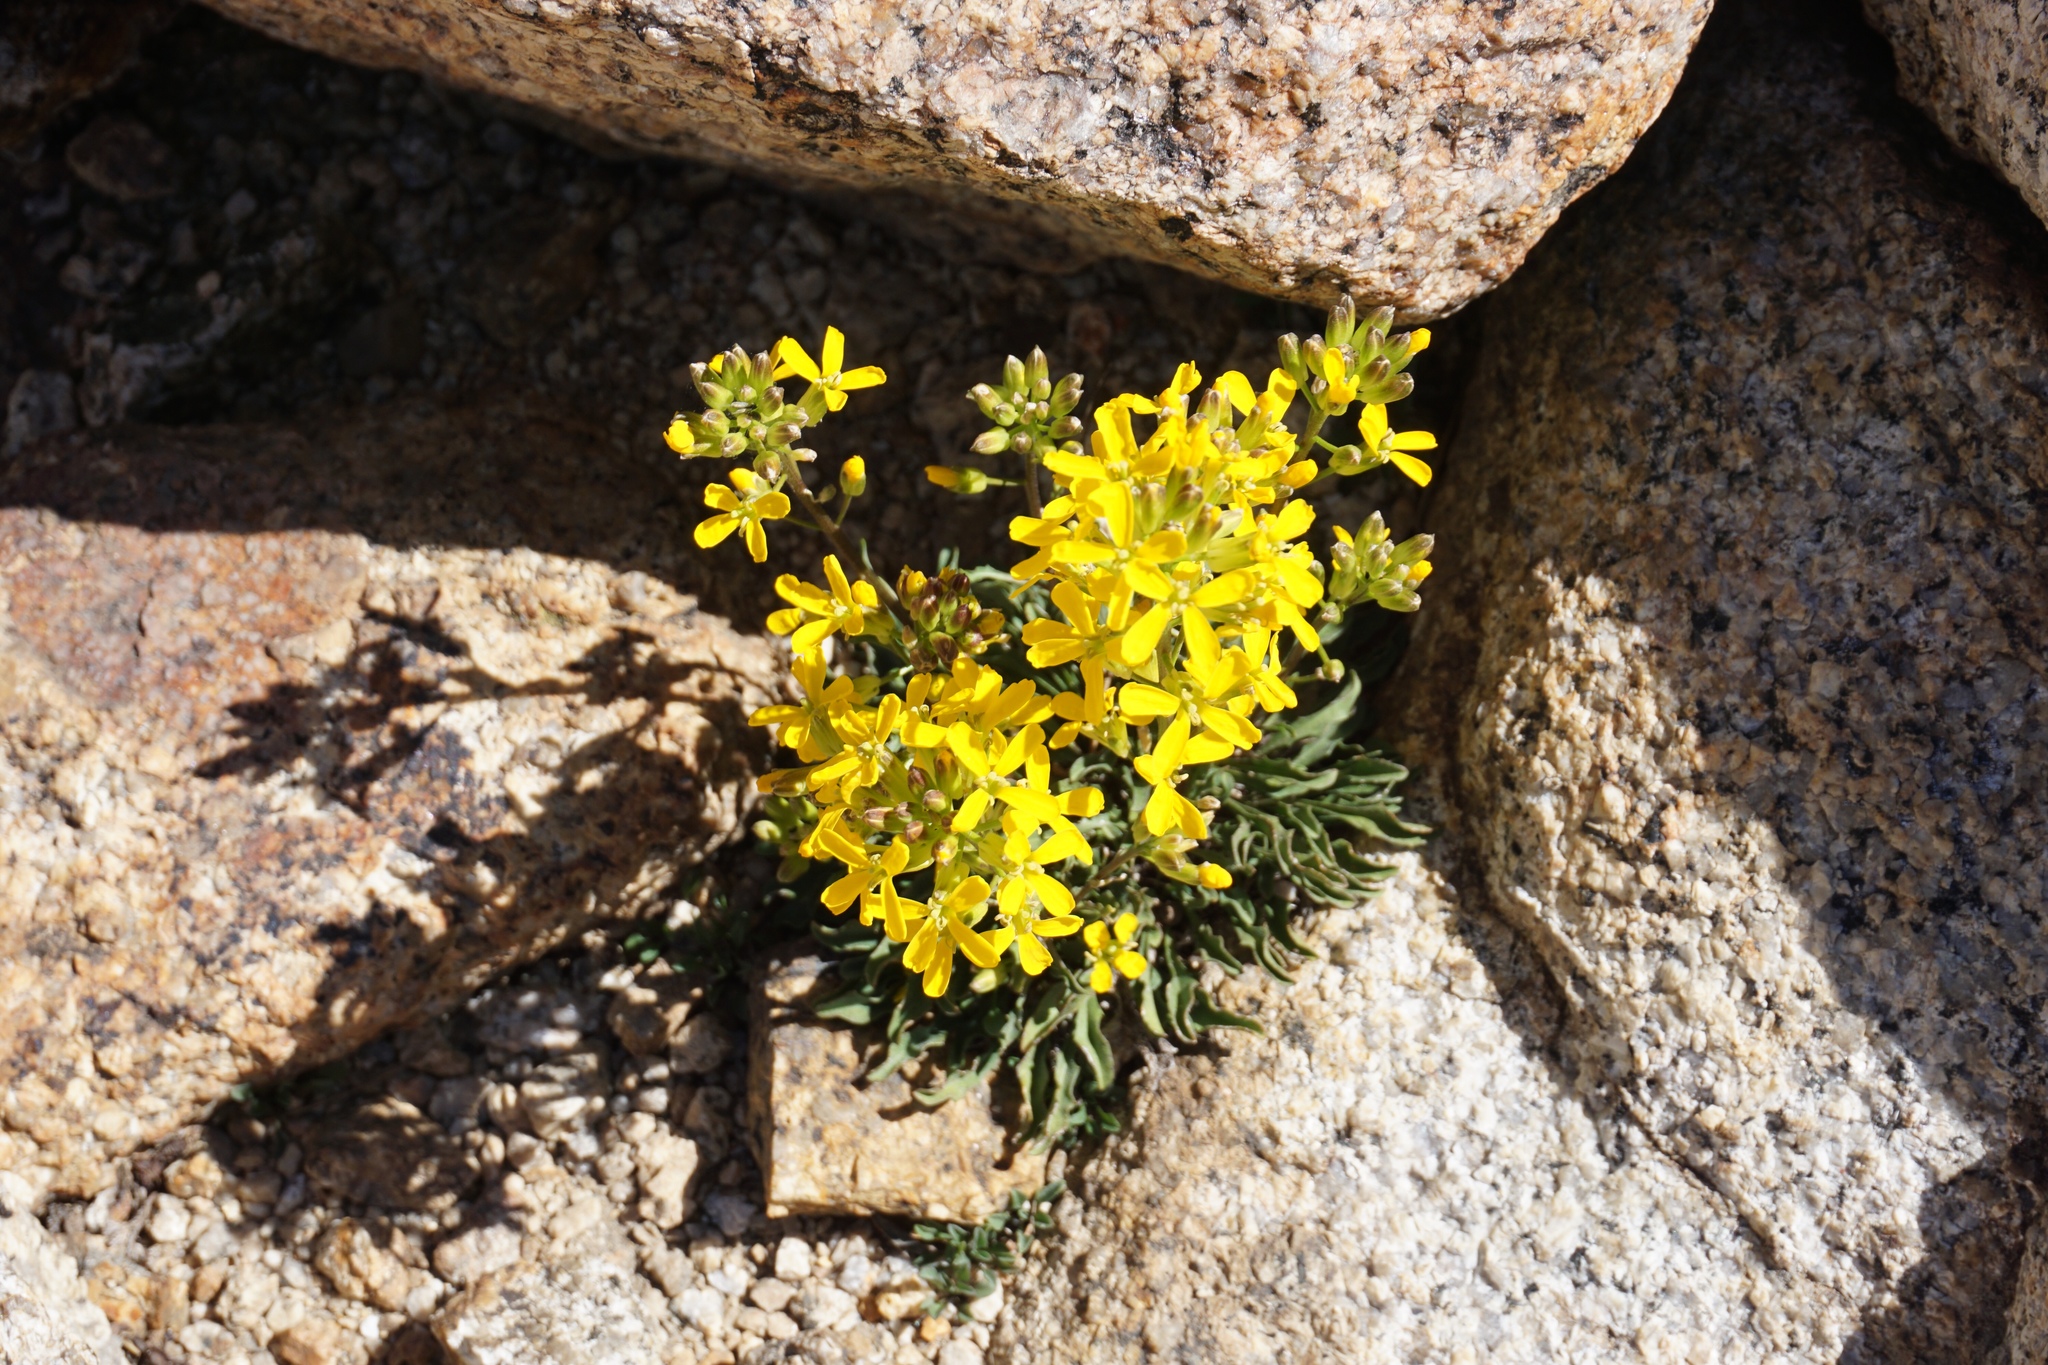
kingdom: Plantae
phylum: Tracheophyta
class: Magnoliopsida
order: Brassicales
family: Brassicaceae
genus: Erysimum
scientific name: Erysimum perenne
